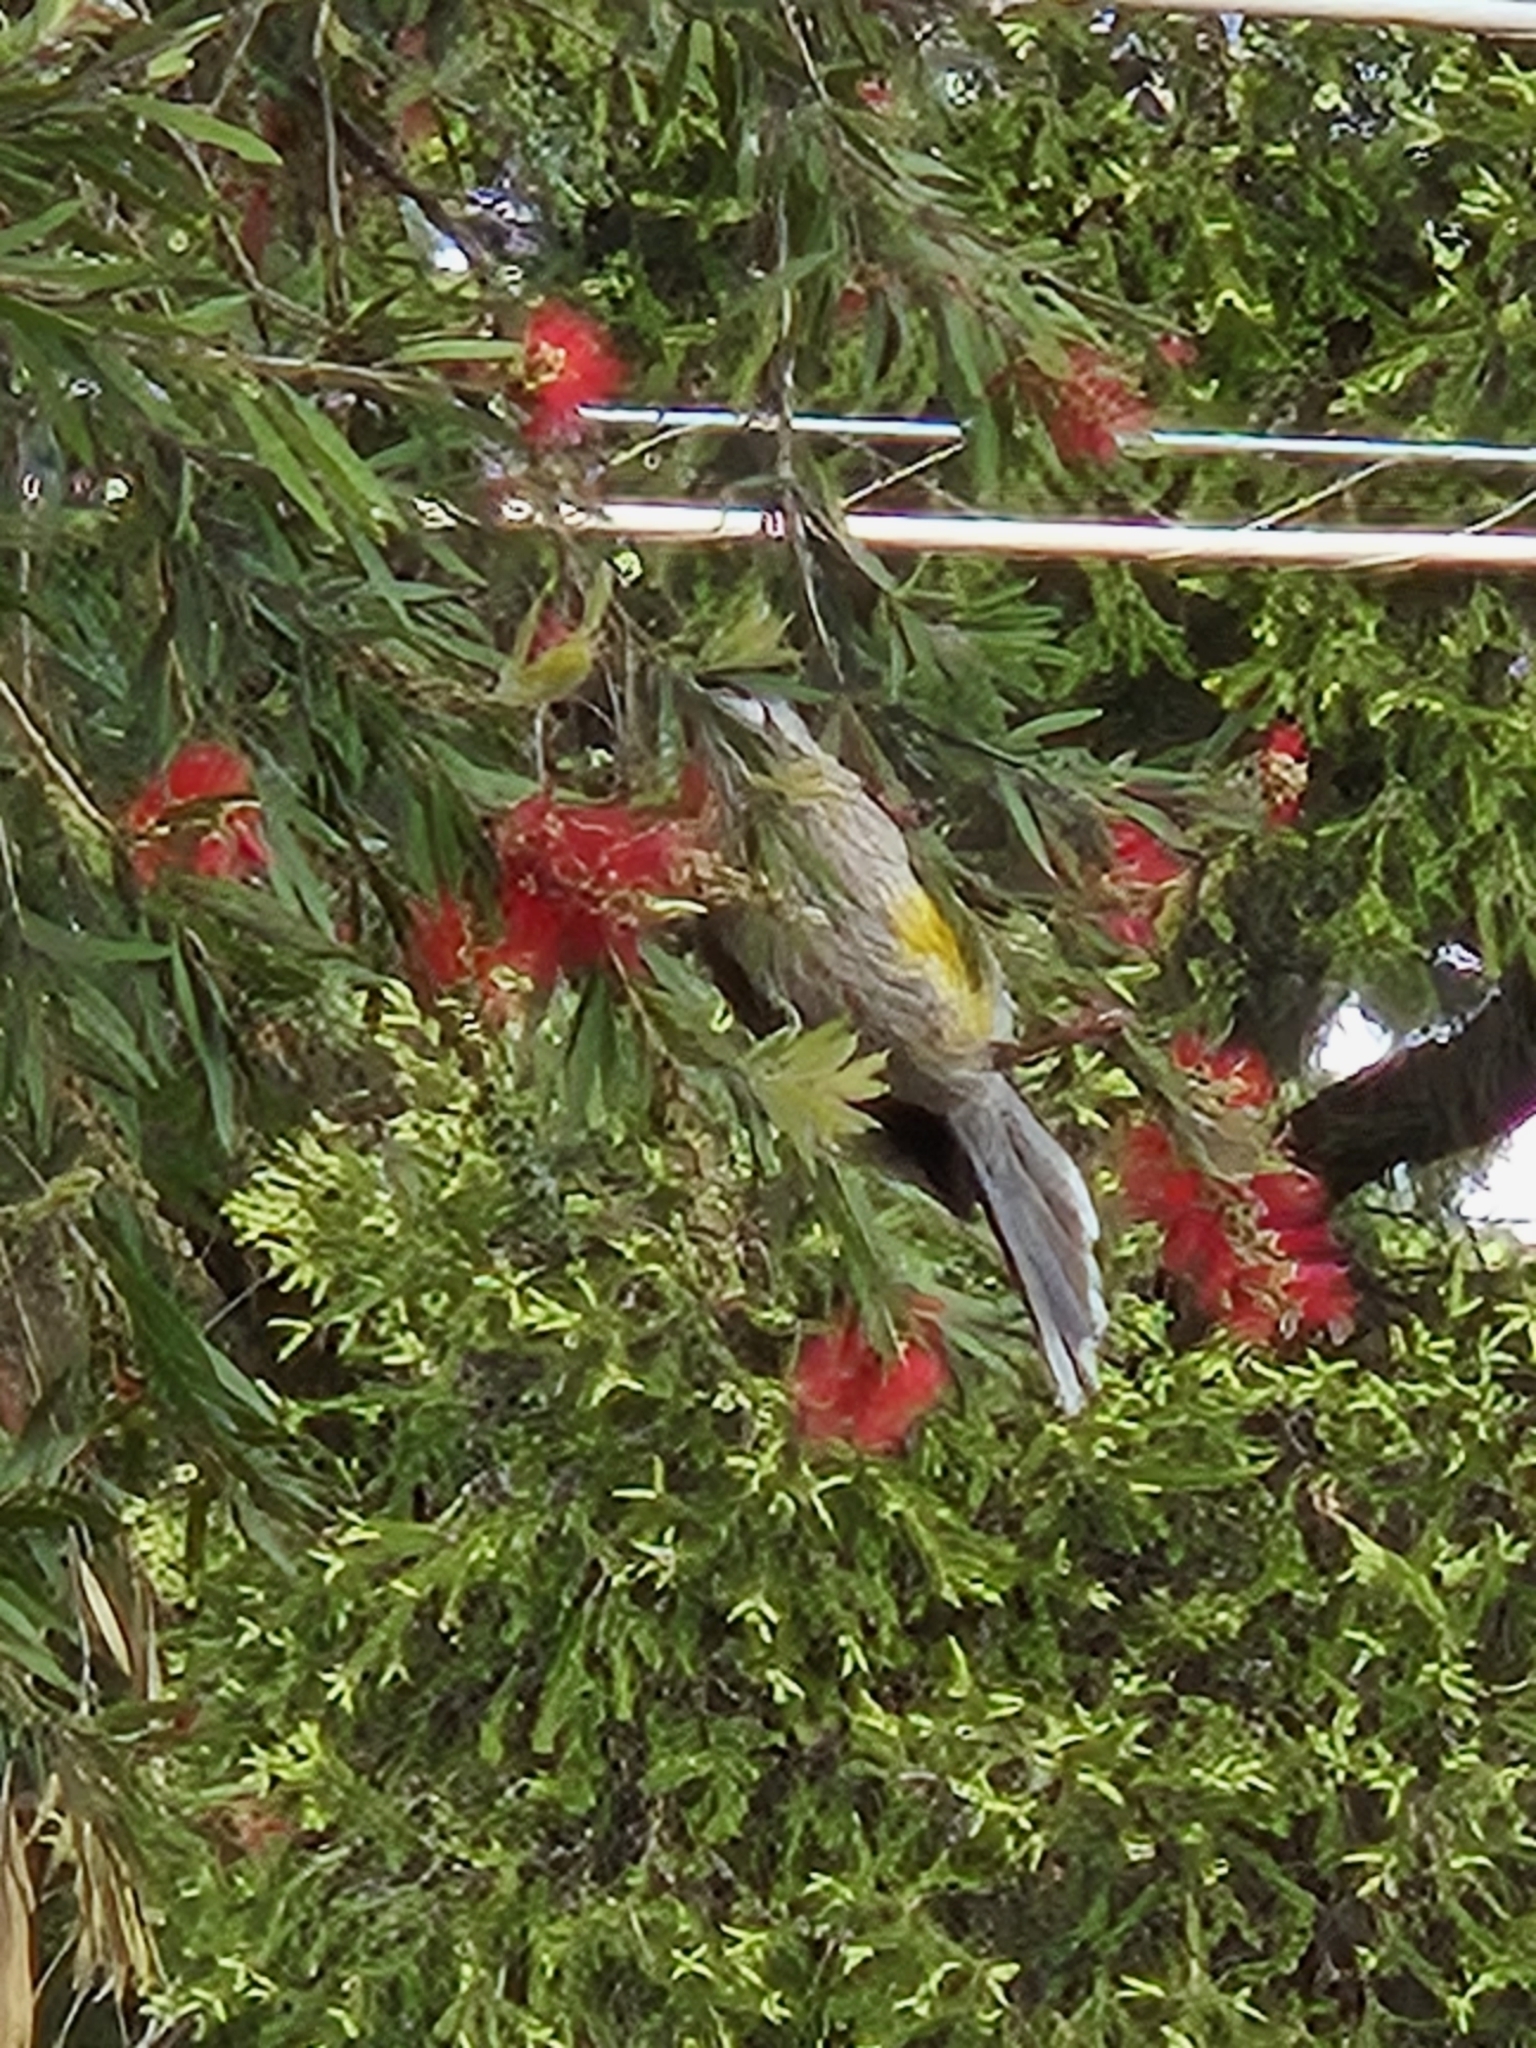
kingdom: Animalia
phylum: Chordata
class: Aves
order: Passeriformes
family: Meliphagidae
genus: Anthochaera
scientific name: Anthochaera carunculata
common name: Red wattlebird
